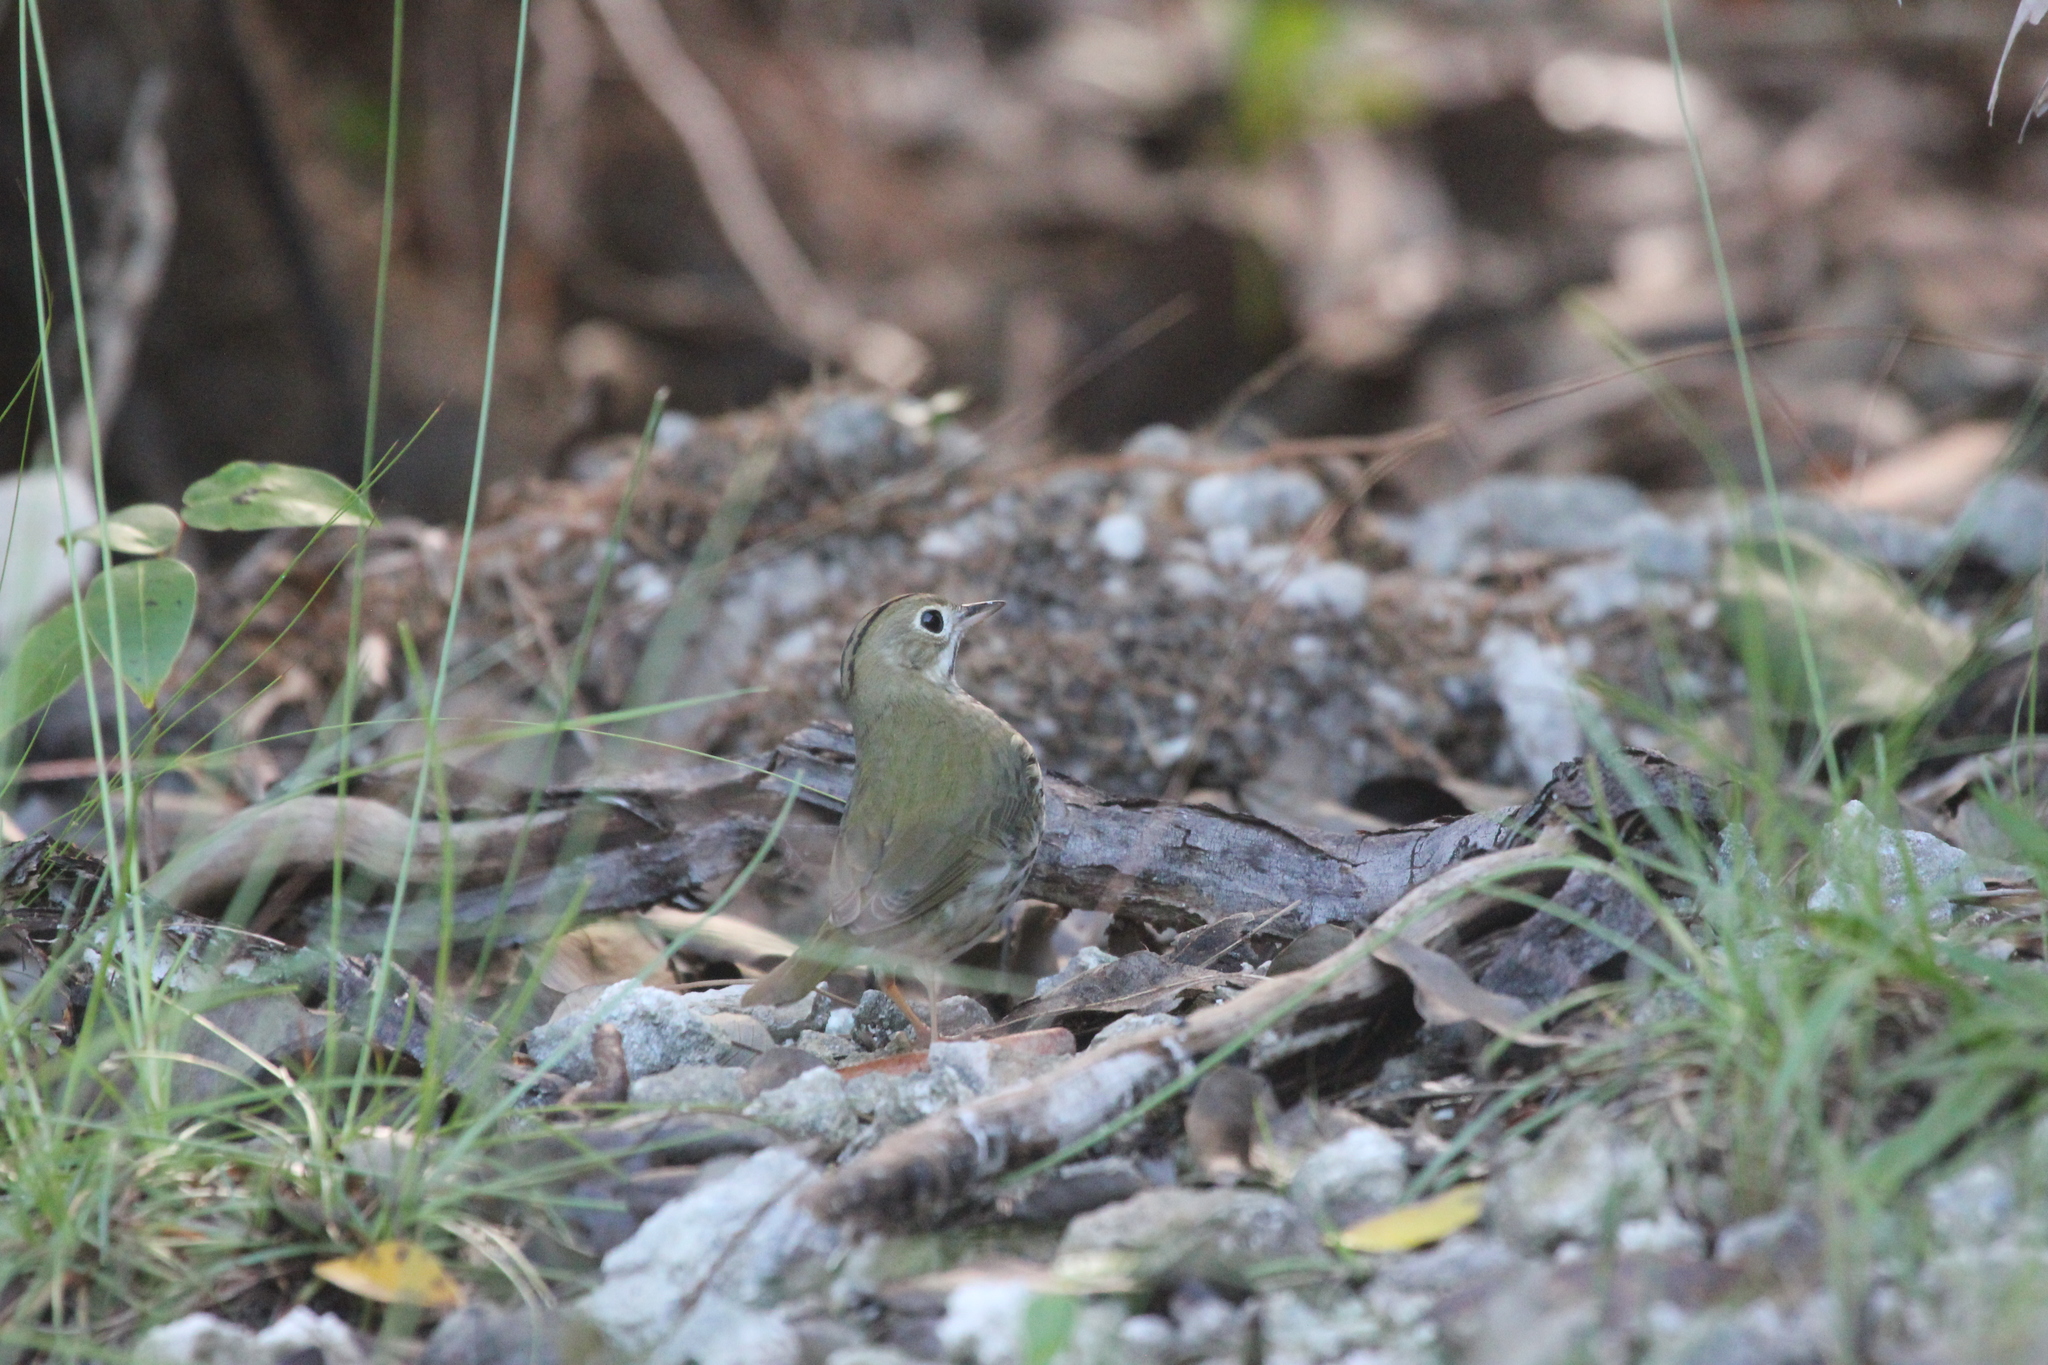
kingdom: Animalia
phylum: Chordata
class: Aves
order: Passeriformes
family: Parulidae
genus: Seiurus
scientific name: Seiurus aurocapilla
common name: Ovenbird
